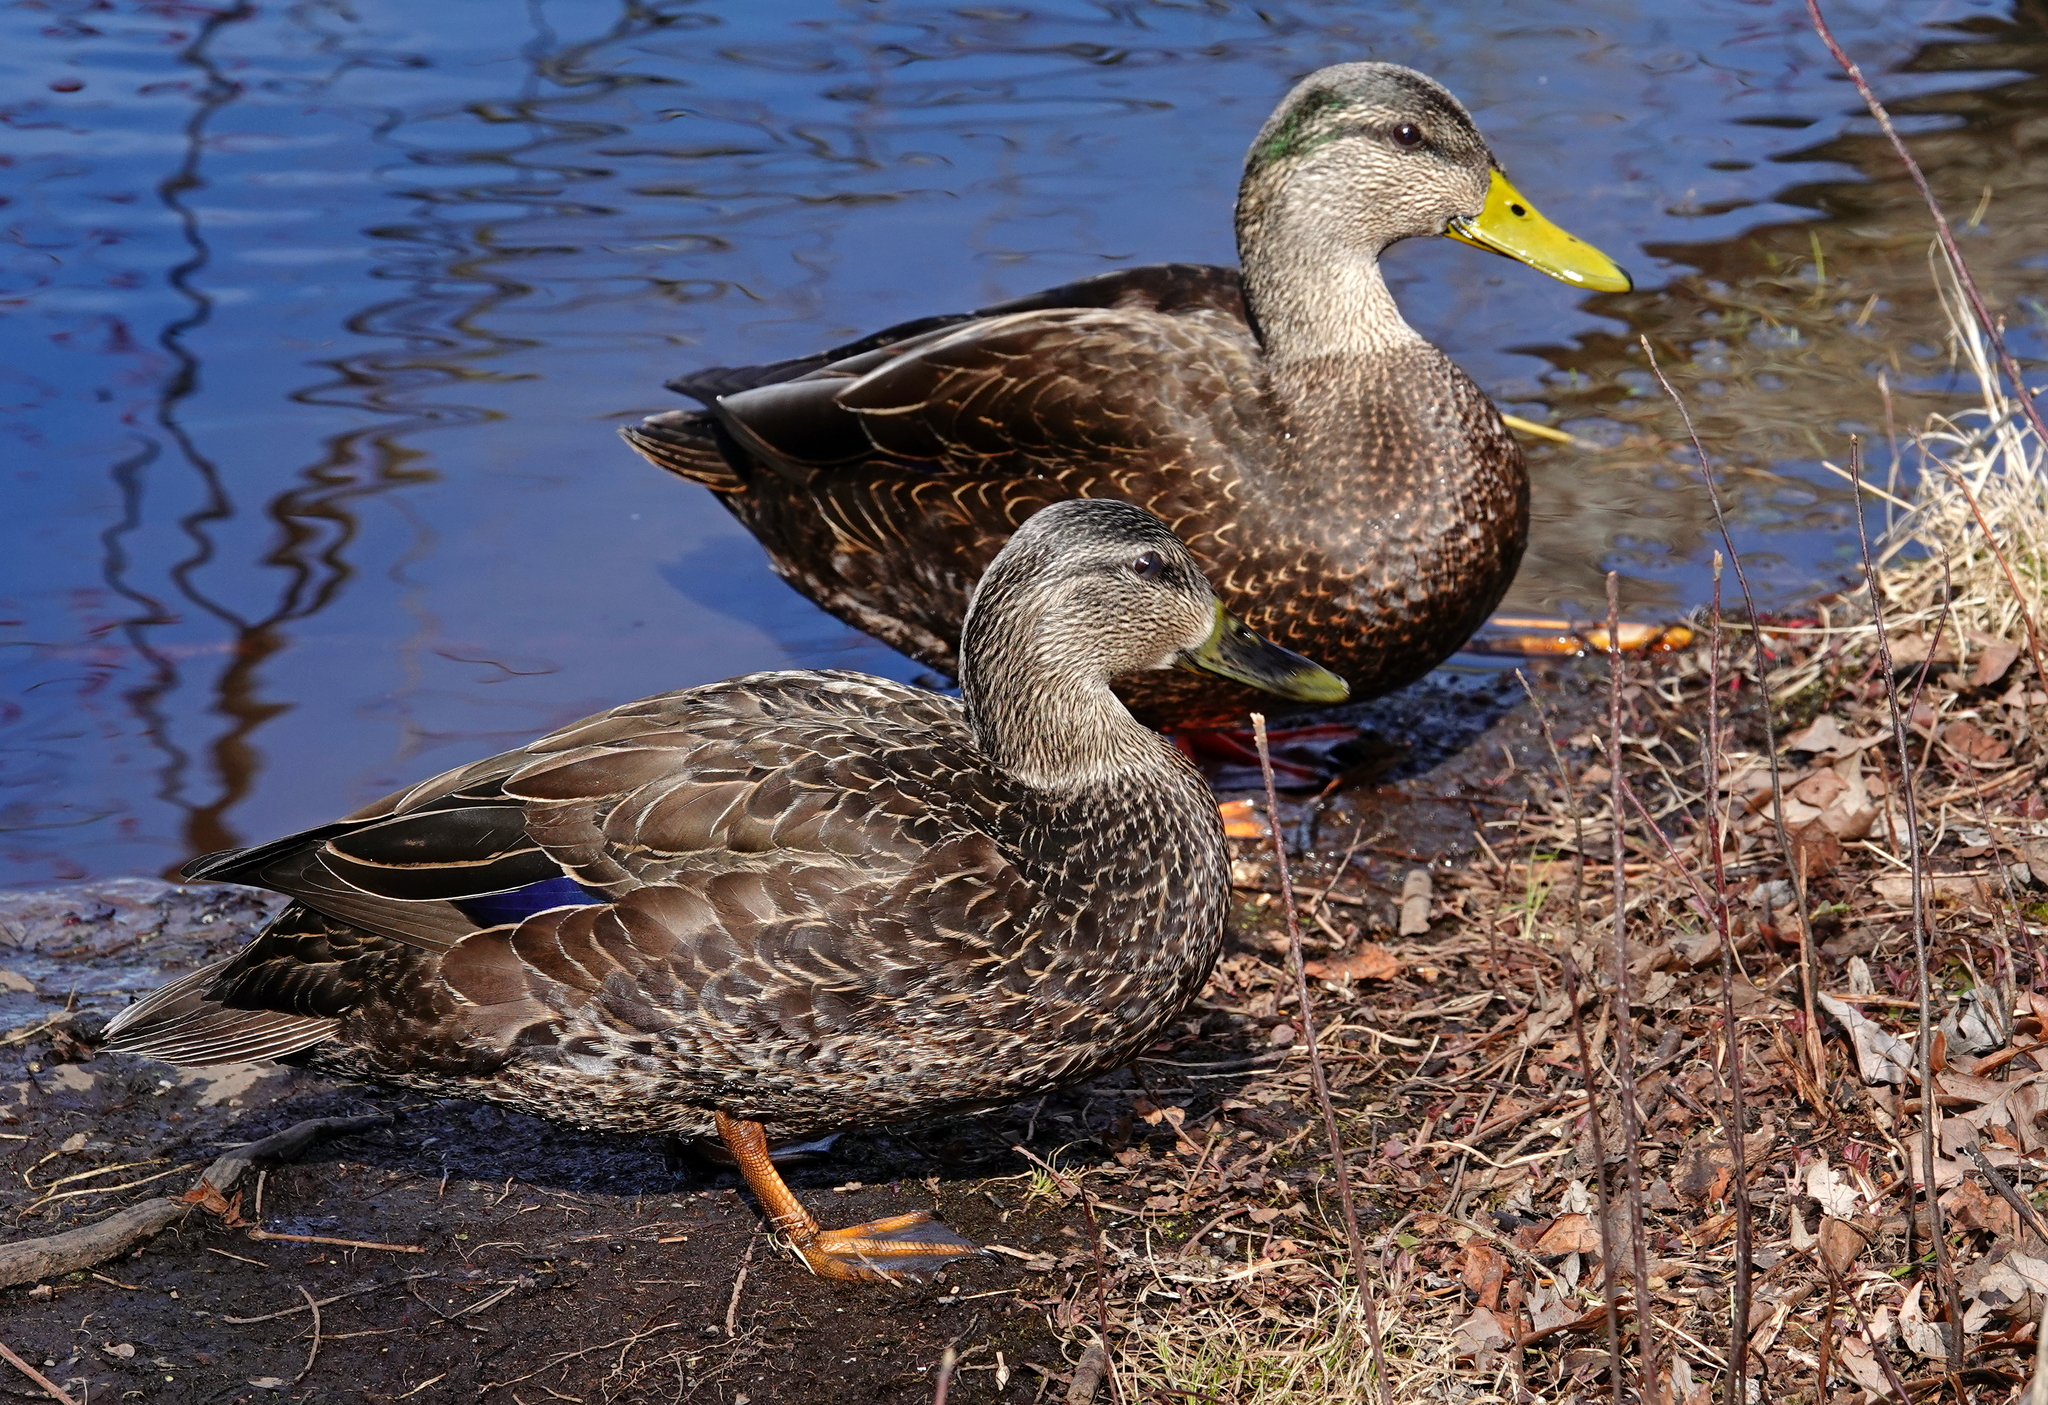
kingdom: Animalia
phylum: Chordata
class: Aves
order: Anseriformes
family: Anatidae
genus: Anas
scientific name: Anas rubripes
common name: American black duck
